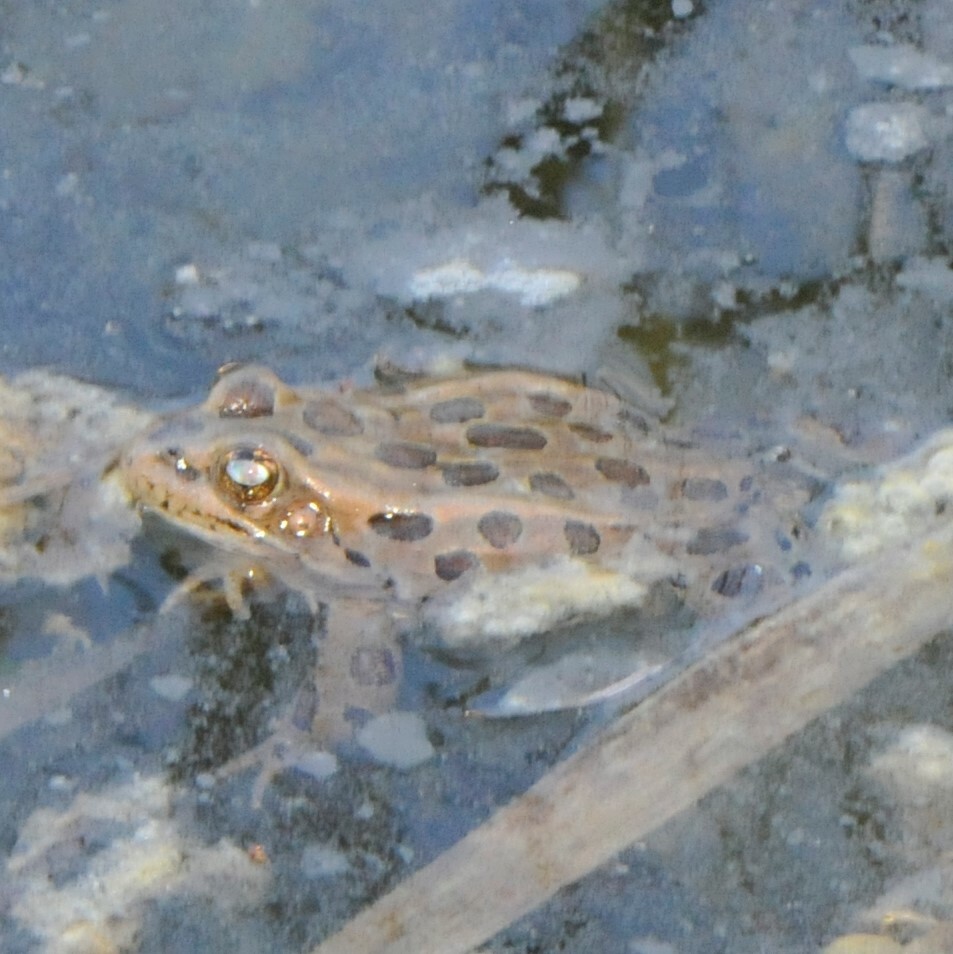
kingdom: Animalia
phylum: Chordata
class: Amphibia
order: Anura
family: Ranidae
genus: Lithobates
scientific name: Lithobates pipiens
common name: Northern leopard frog
